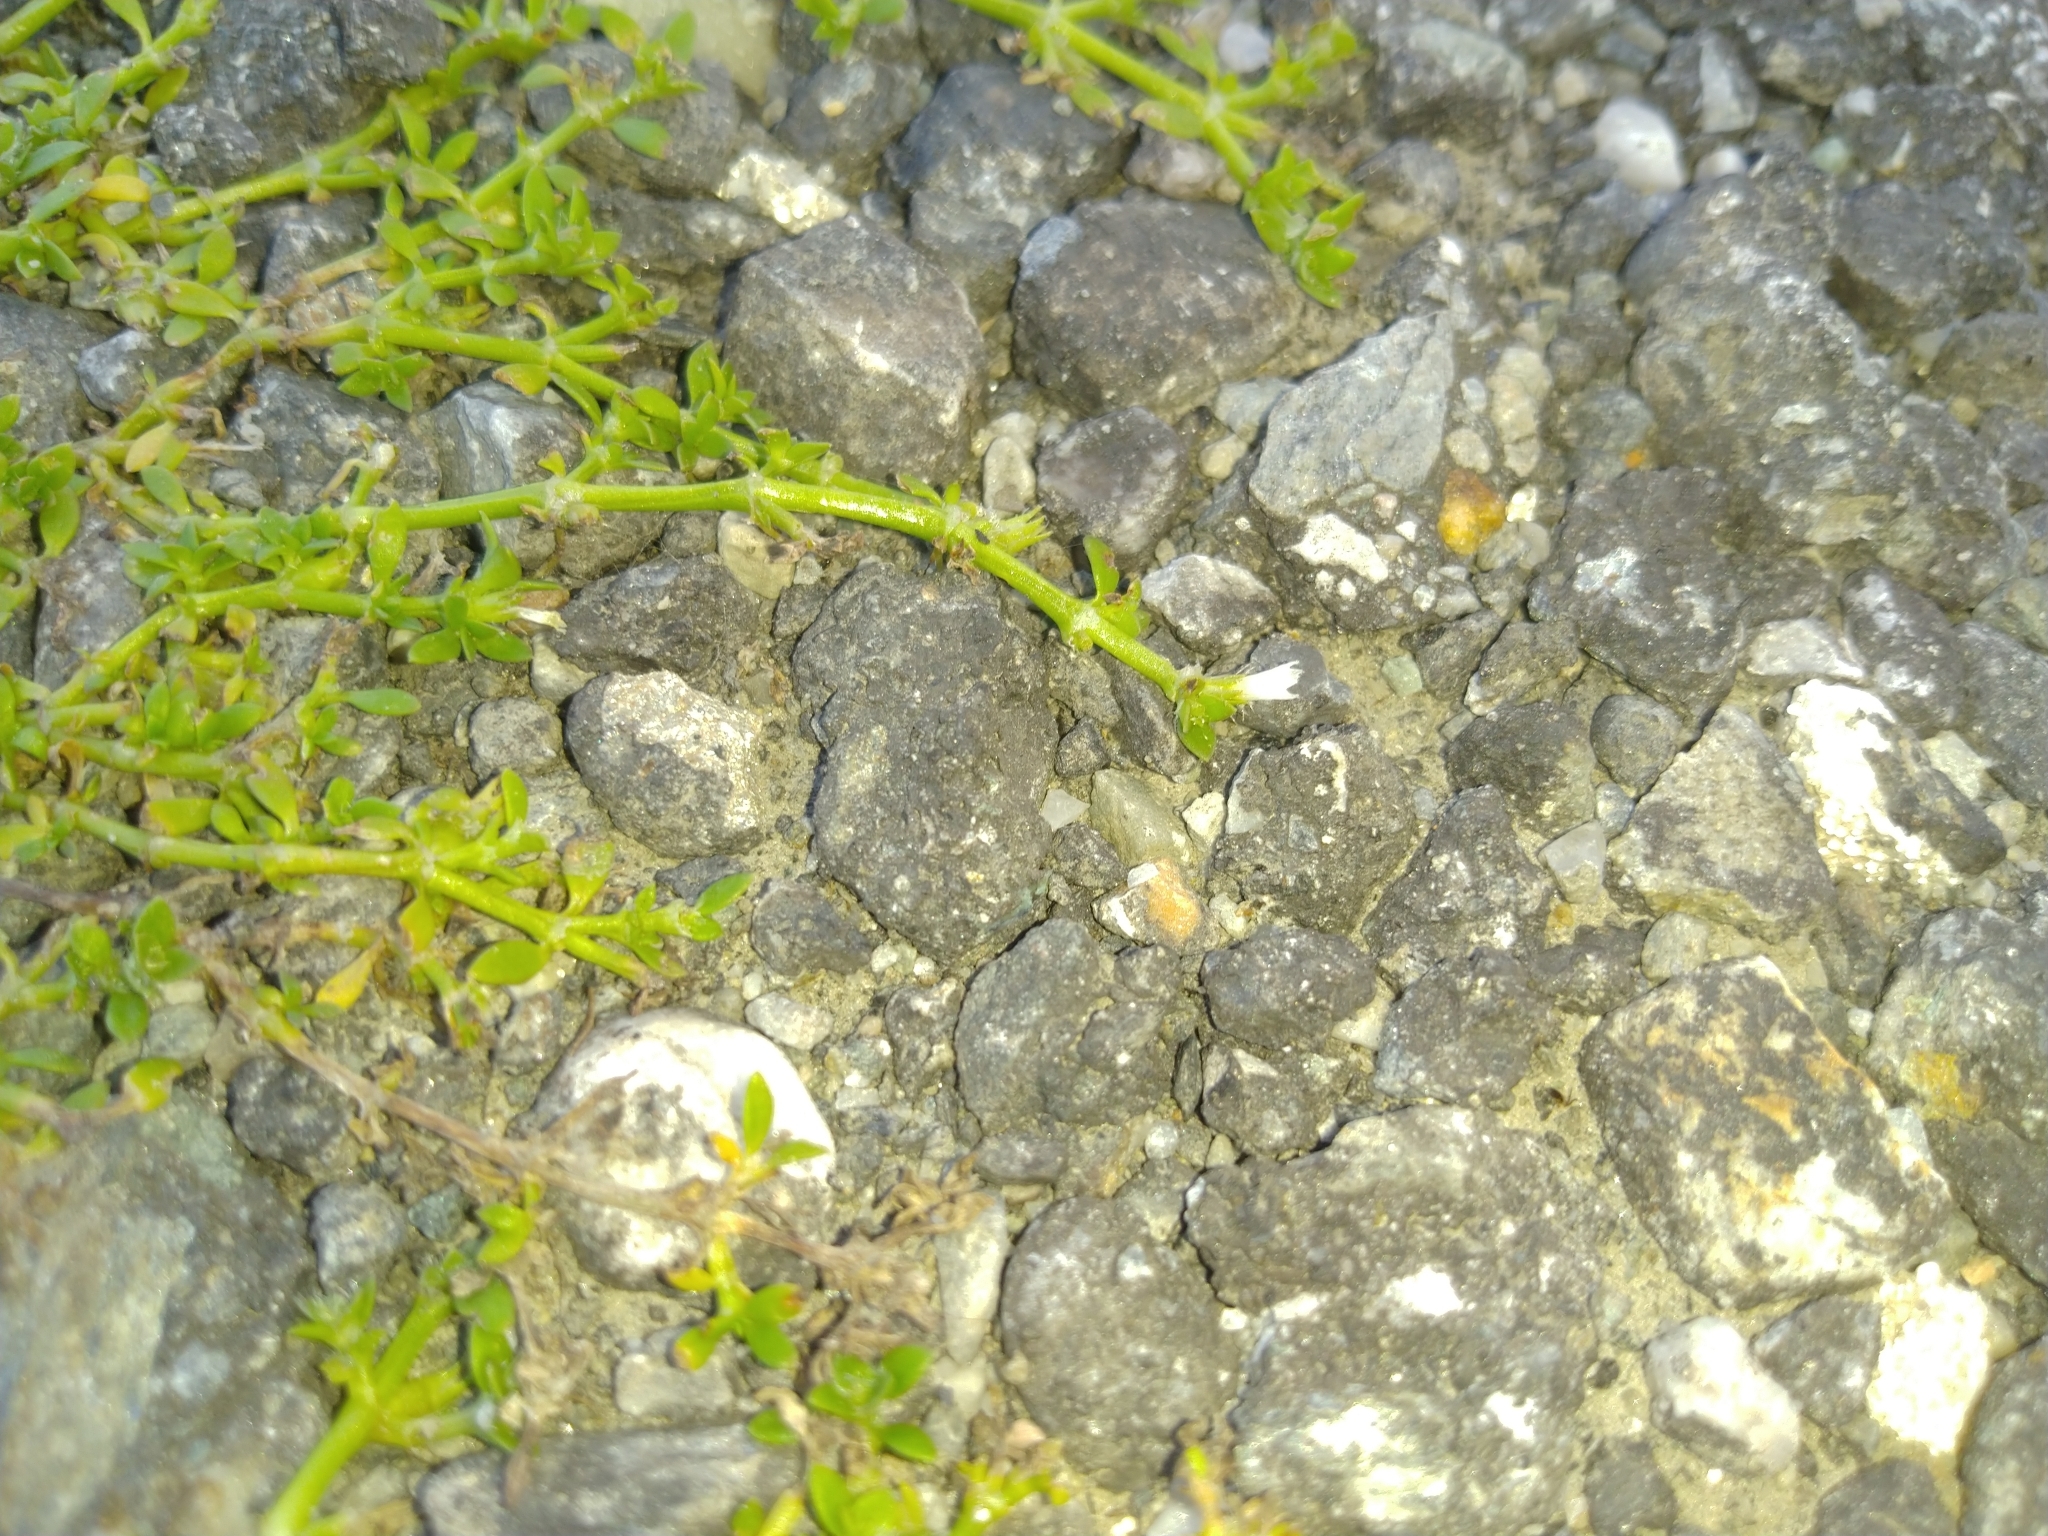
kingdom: Plantae
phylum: Tracheophyta
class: Magnoliopsida
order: Gentianales
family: Rubiaceae
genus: Dentella
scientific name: Dentella repens
